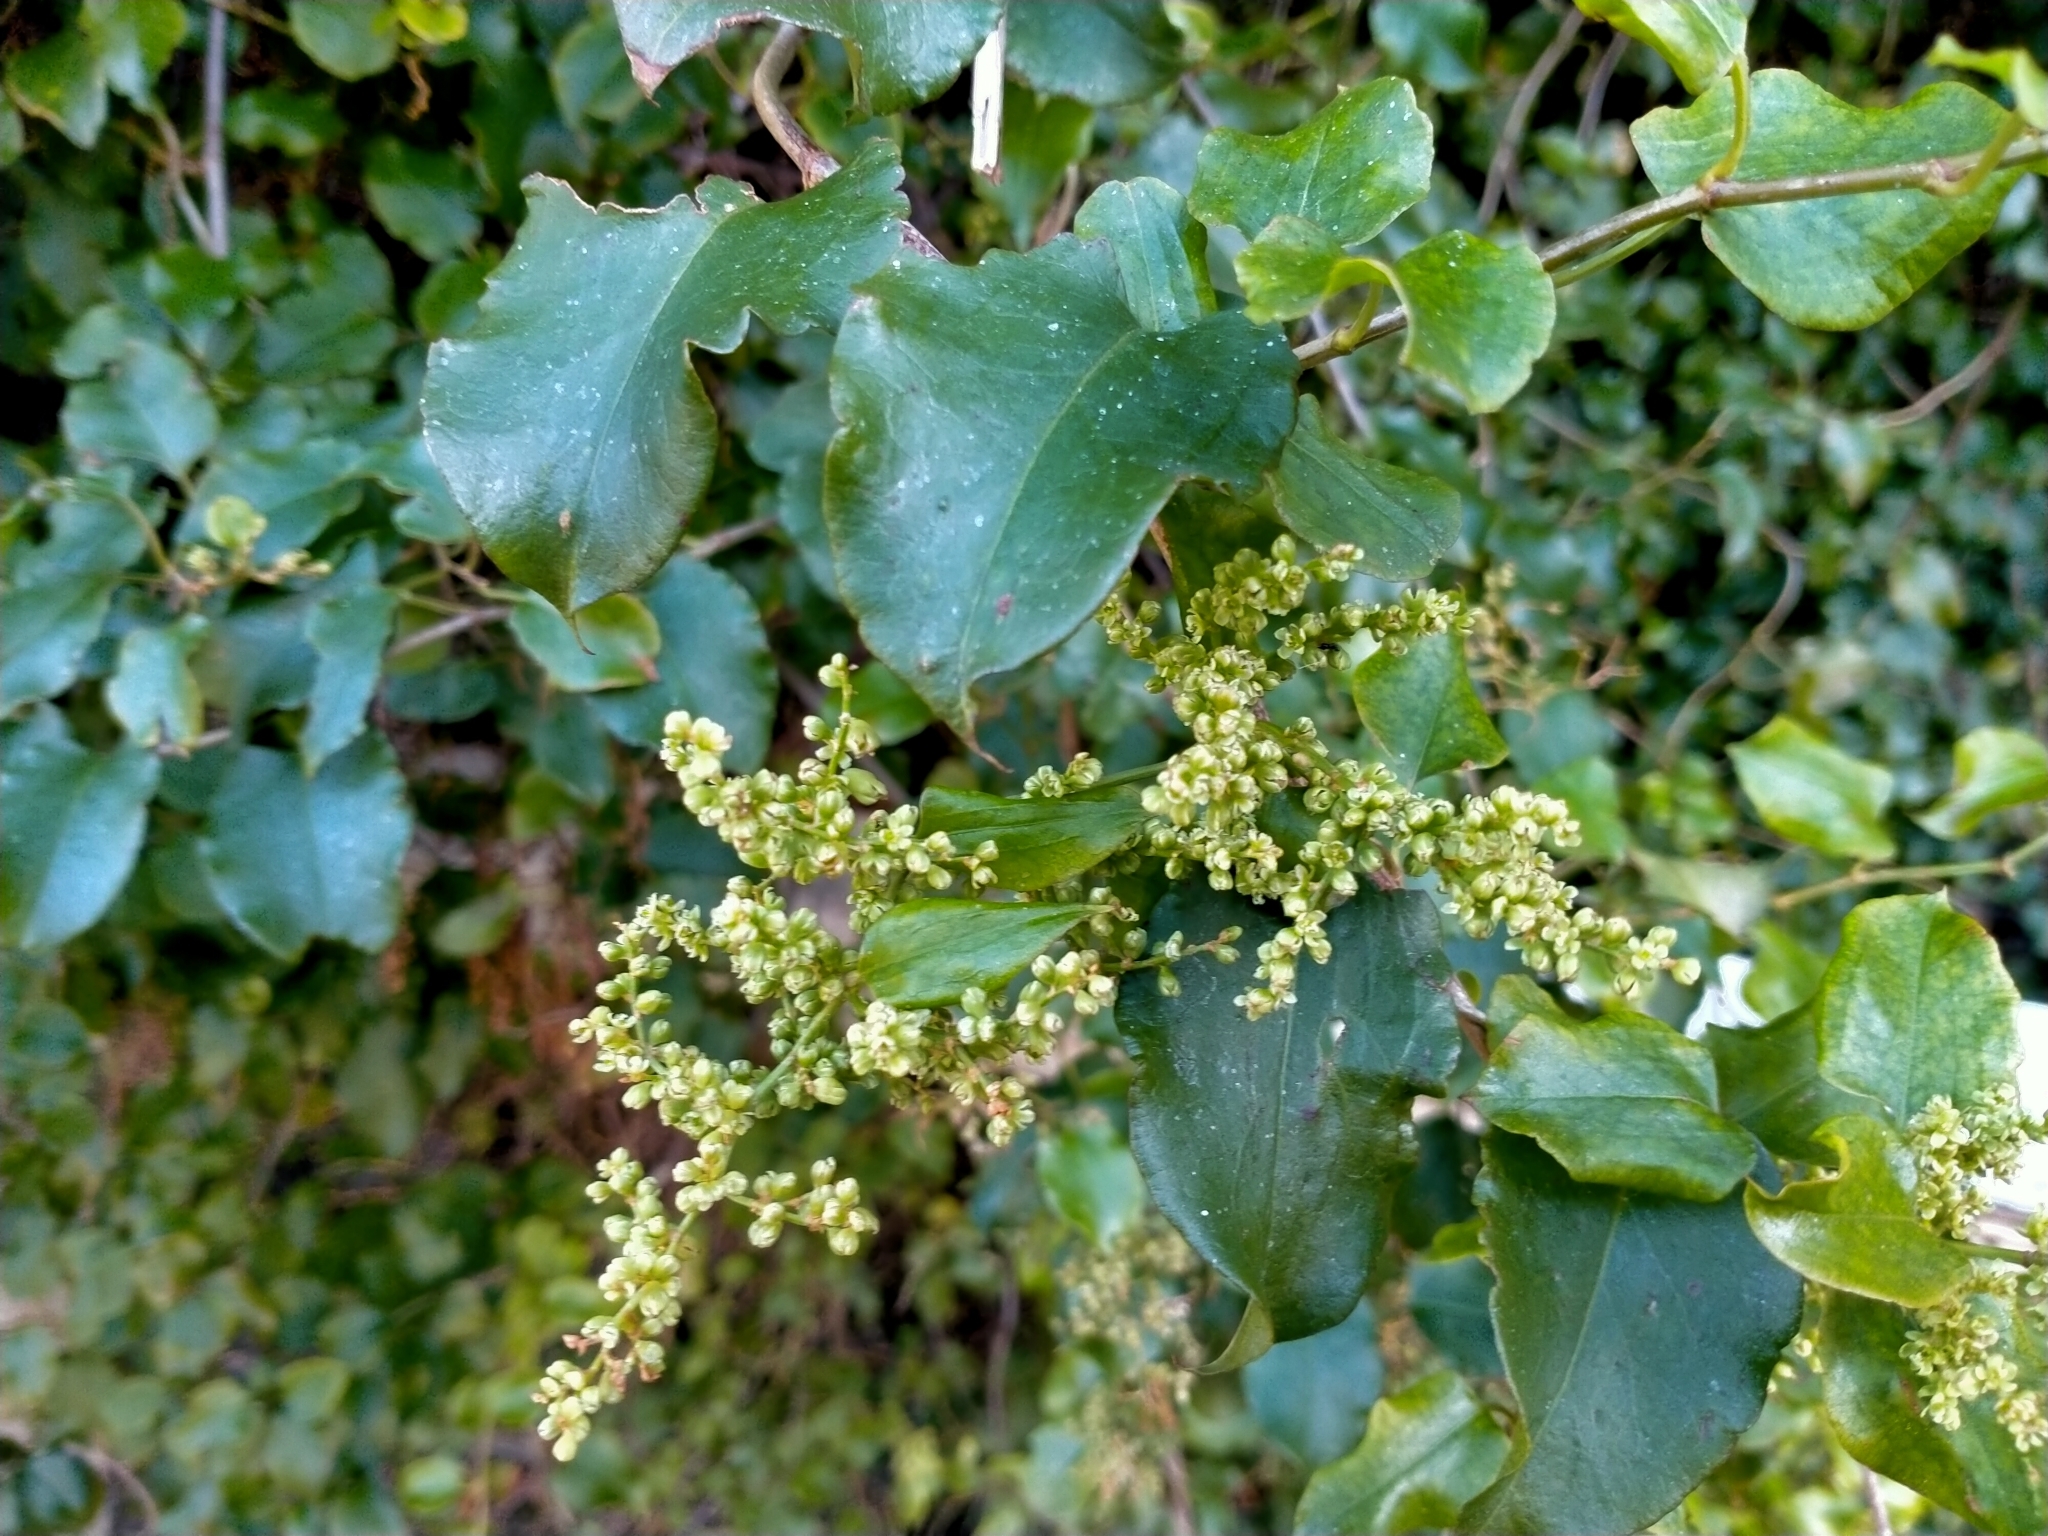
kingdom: Plantae
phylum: Tracheophyta
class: Magnoliopsida
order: Caryophyllales
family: Polygonaceae
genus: Muehlenbeckia
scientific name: Muehlenbeckia australis
